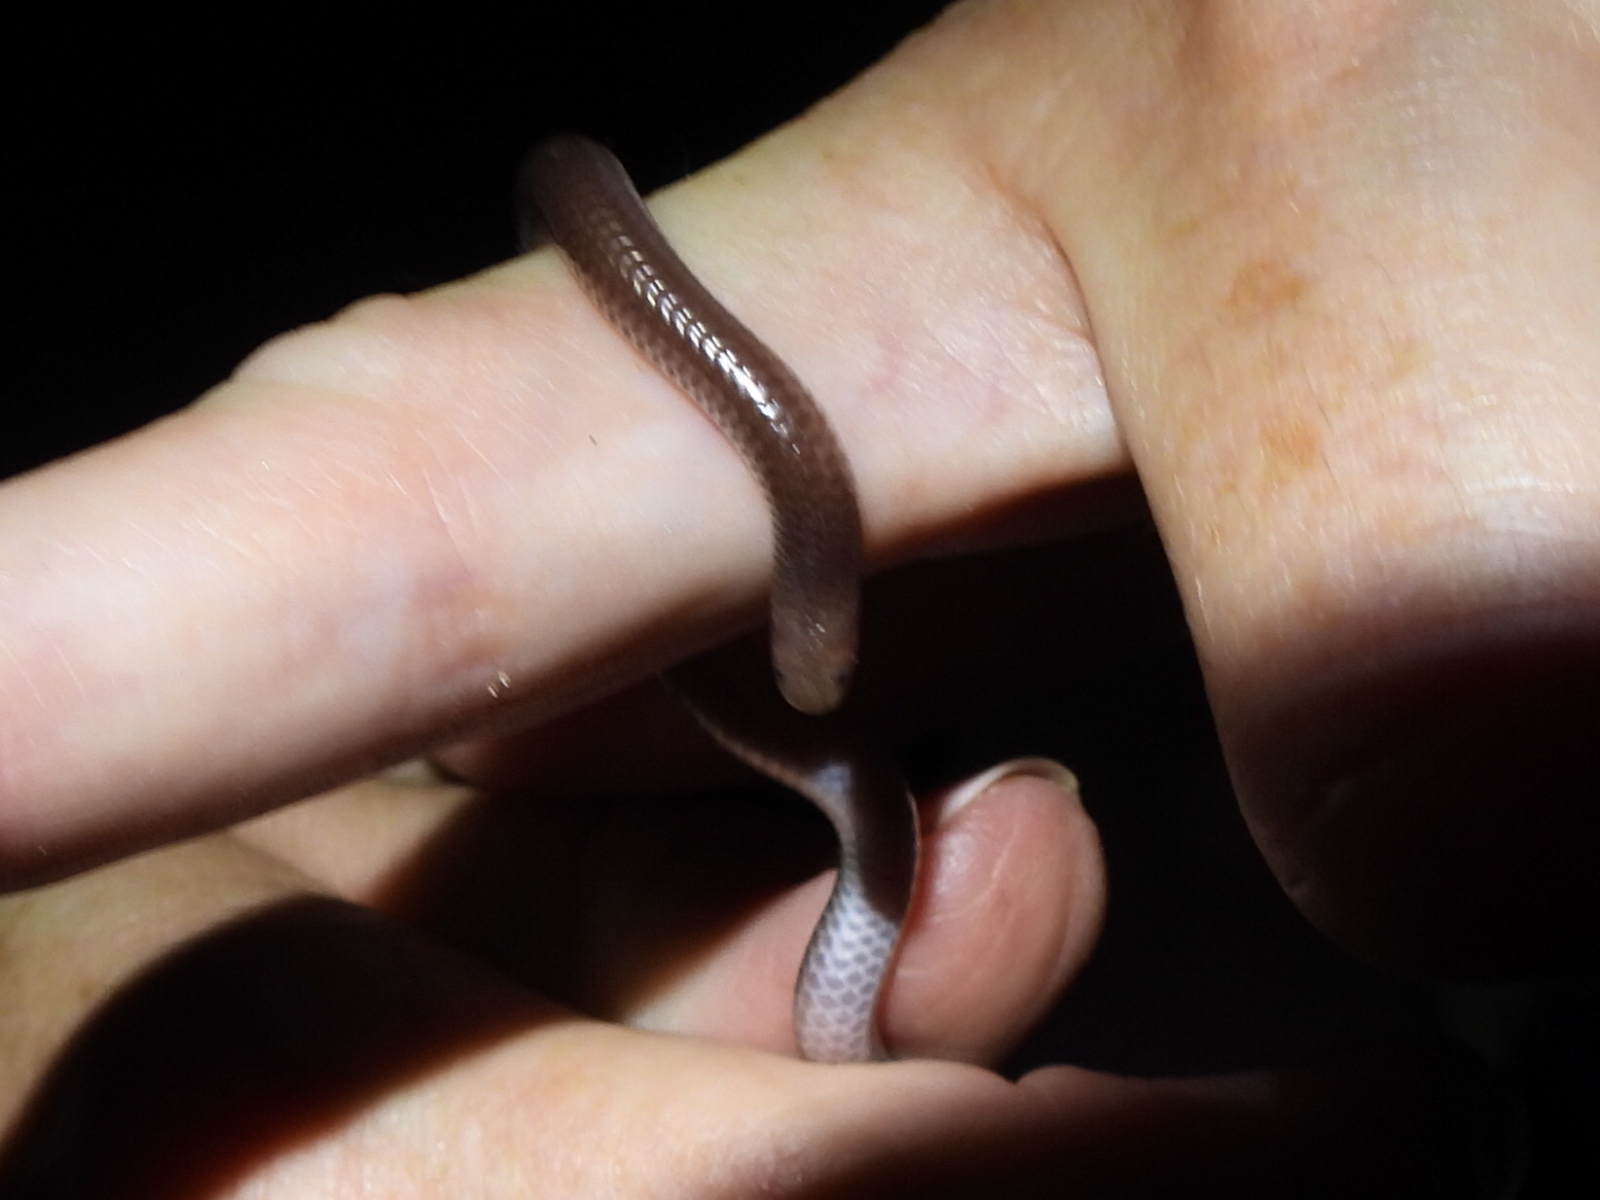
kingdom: Animalia
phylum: Chordata
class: Squamata
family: Leptotyphlopidae
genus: Rena
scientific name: Rena dulcis
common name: Texas blind snake
